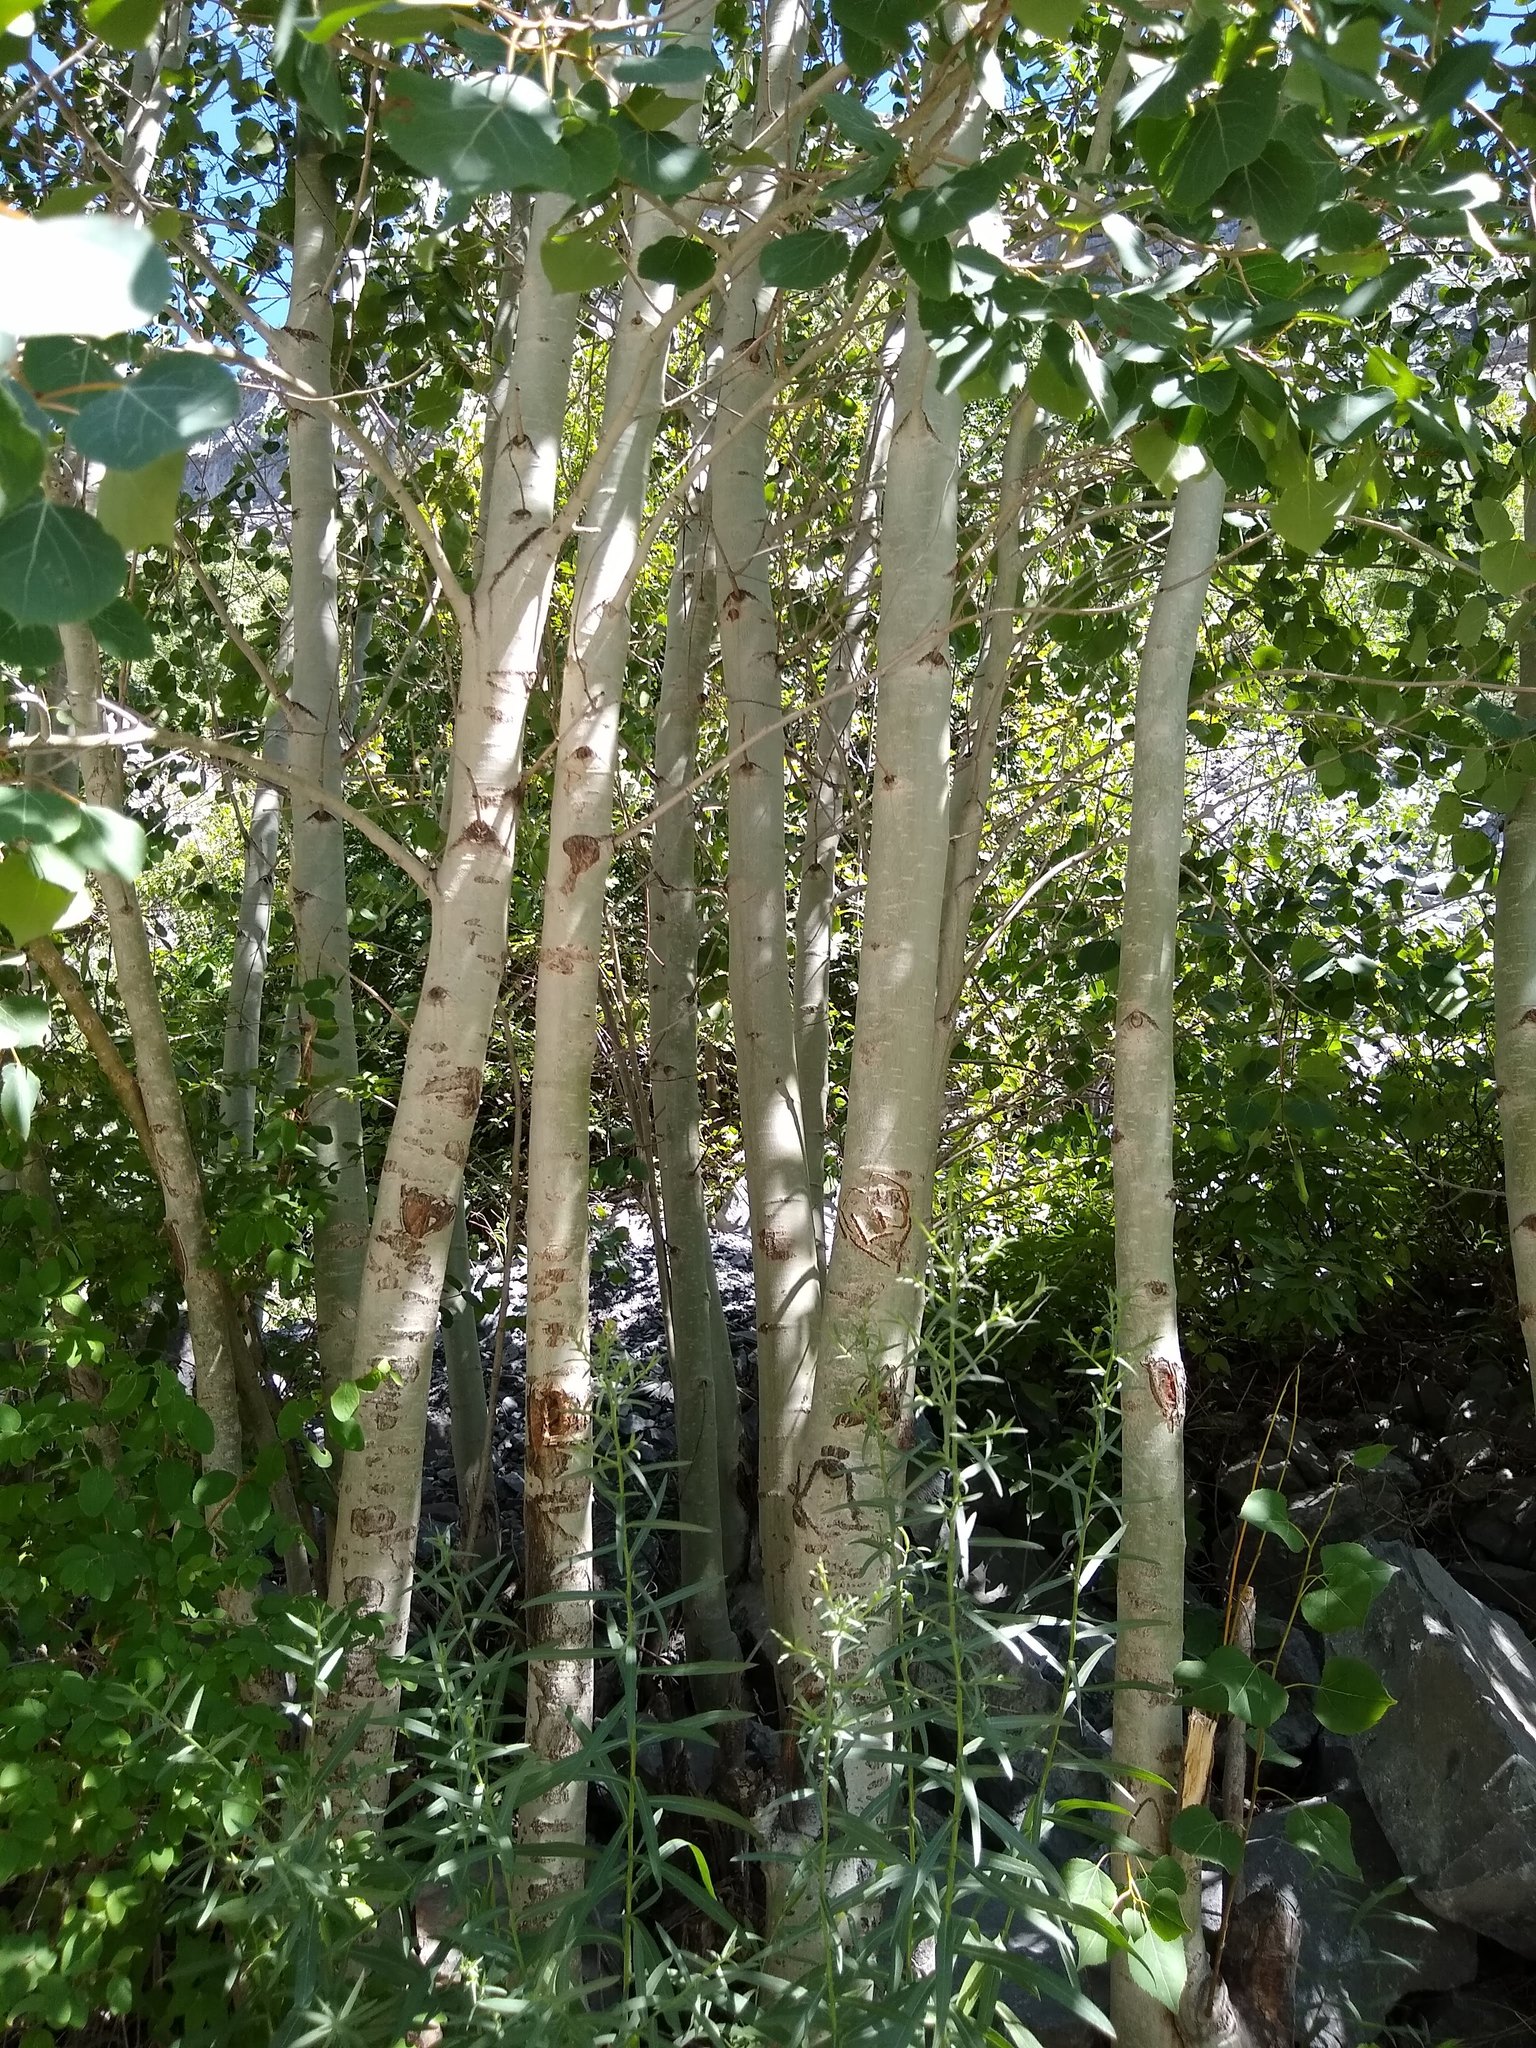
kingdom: Plantae
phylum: Tracheophyta
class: Magnoliopsida
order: Malpighiales
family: Salicaceae
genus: Populus
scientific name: Populus tremuloides
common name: Quaking aspen
